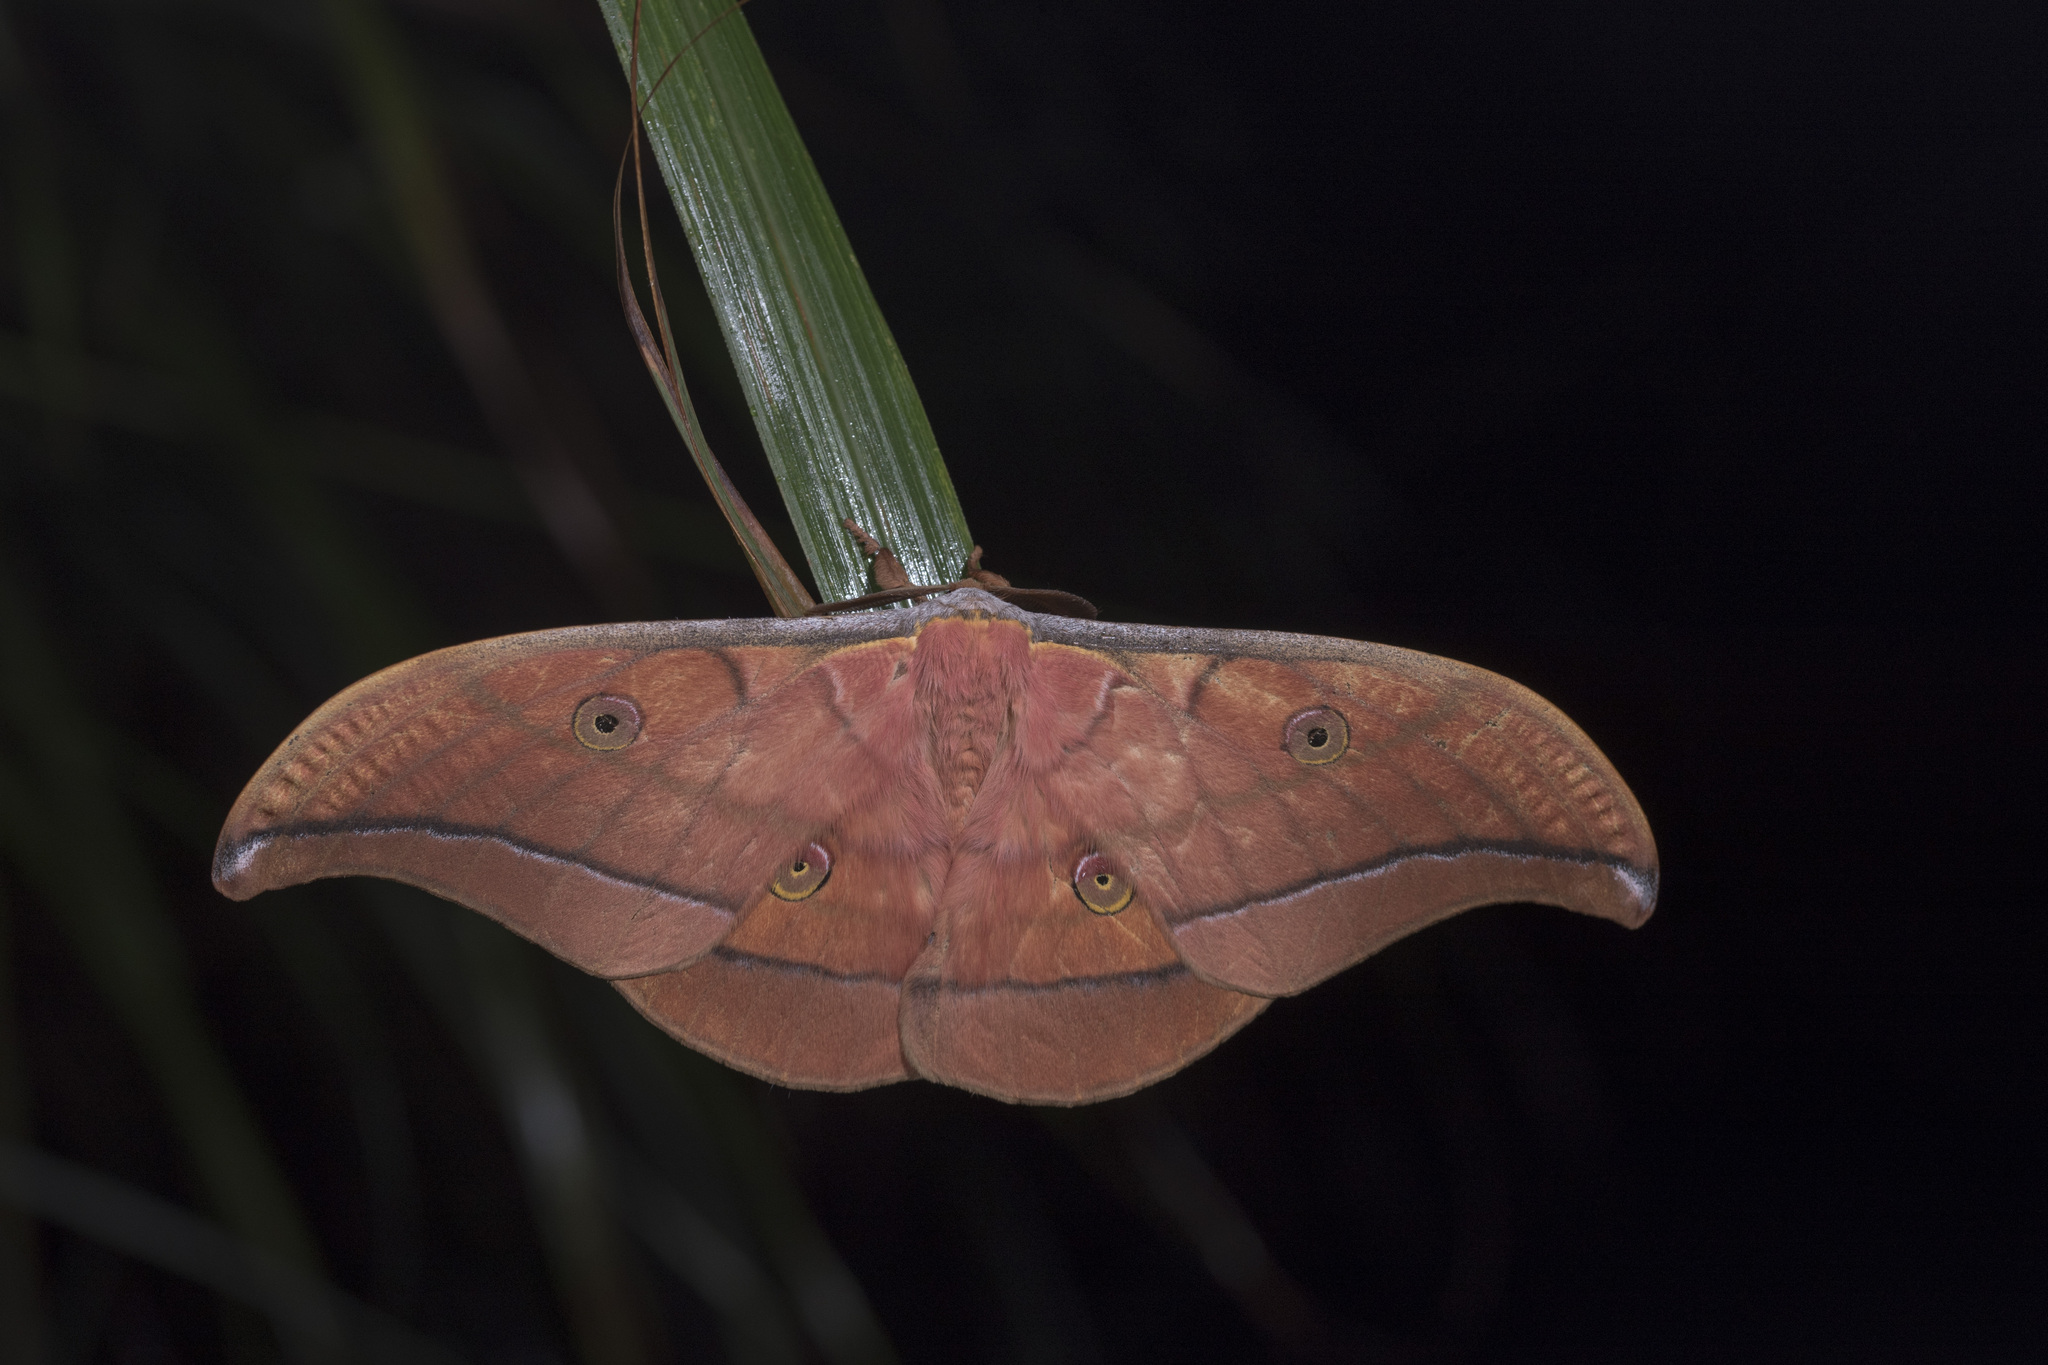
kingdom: Animalia
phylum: Arthropoda
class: Insecta
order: Lepidoptera
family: Saturniidae
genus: Antheraea
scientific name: Antheraea superba
